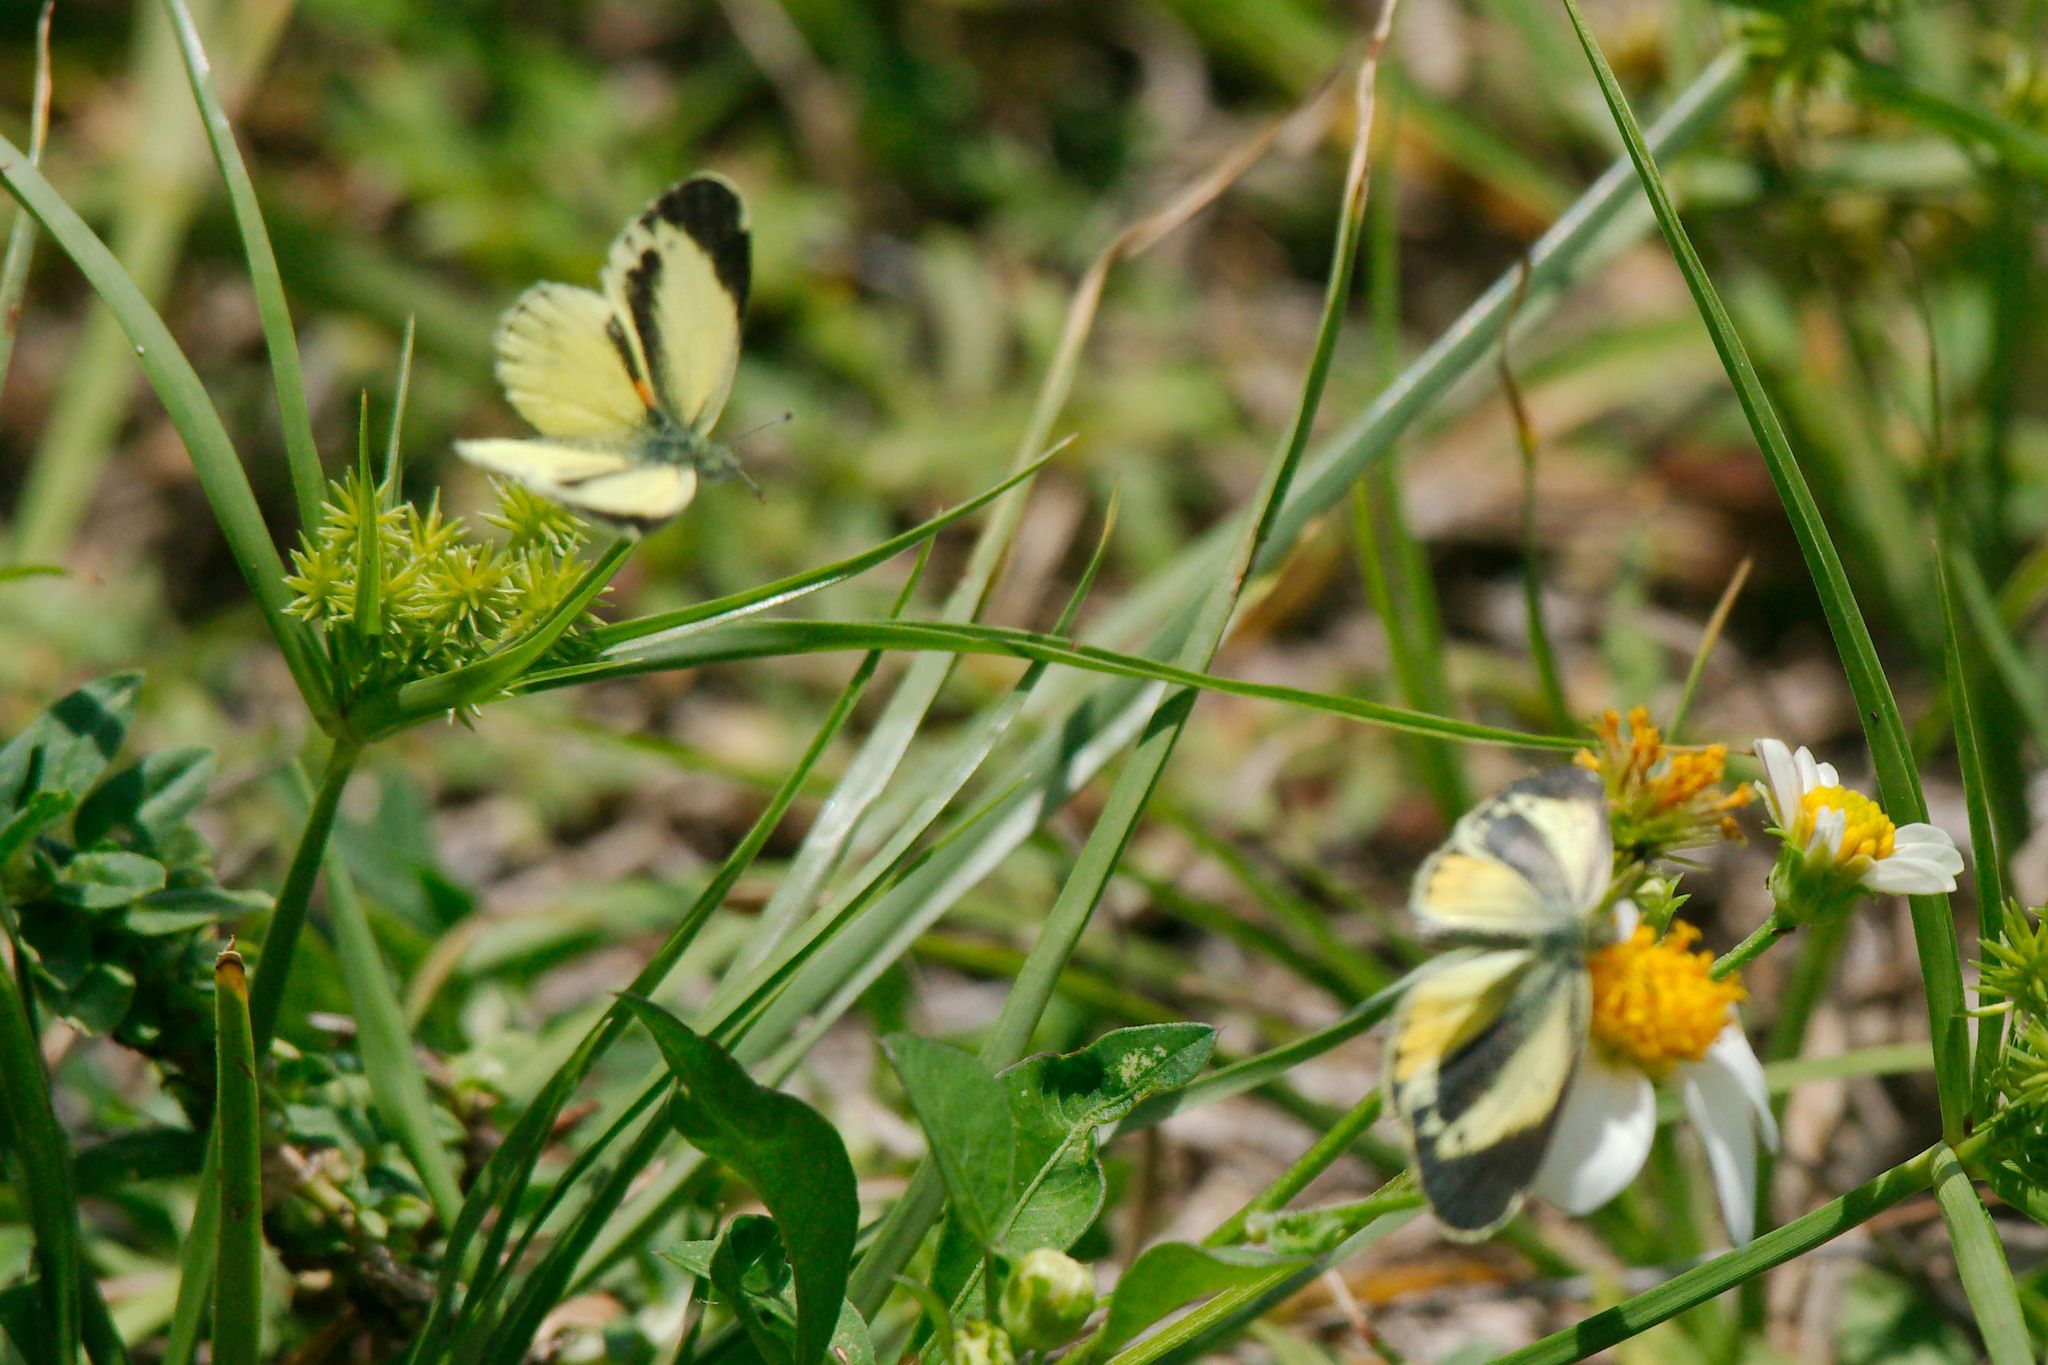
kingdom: Animalia
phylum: Arthropoda
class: Insecta
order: Lepidoptera
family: Pieridae
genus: Nathalis
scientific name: Nathalis iole
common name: Dainty sulphur
